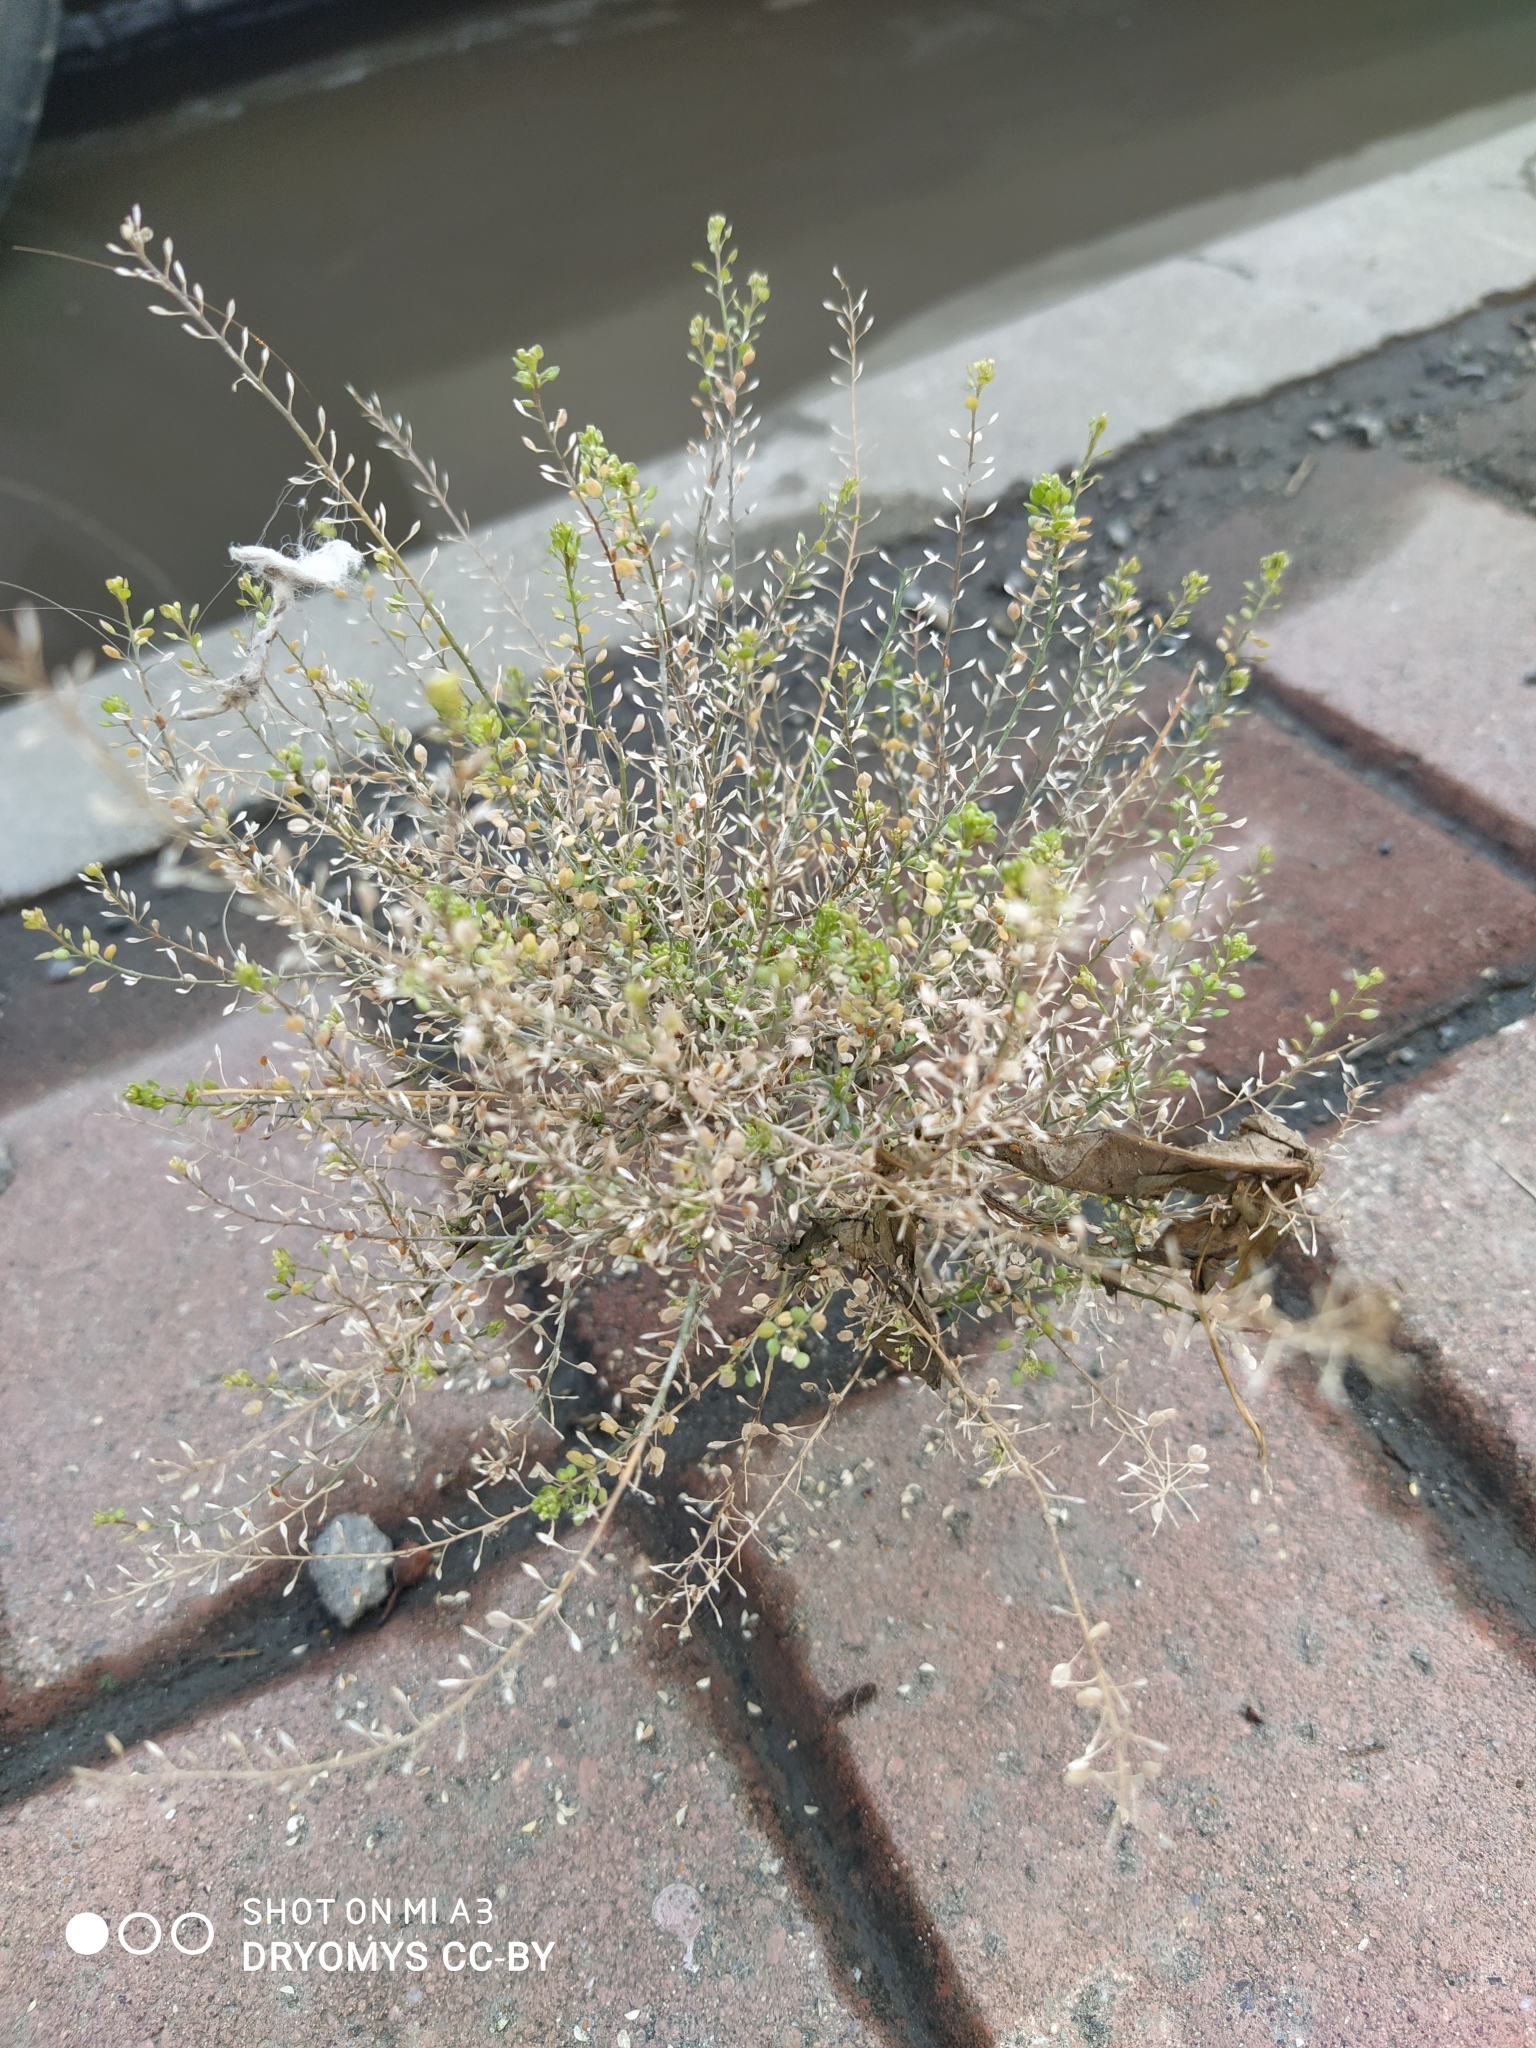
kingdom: Plantae
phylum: Tracheophyta
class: Magnoliopsida
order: Brassicales
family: Brassicaceae
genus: Lepidium
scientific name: Lepidium ruderale
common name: Narrow-leaved pepperwort
